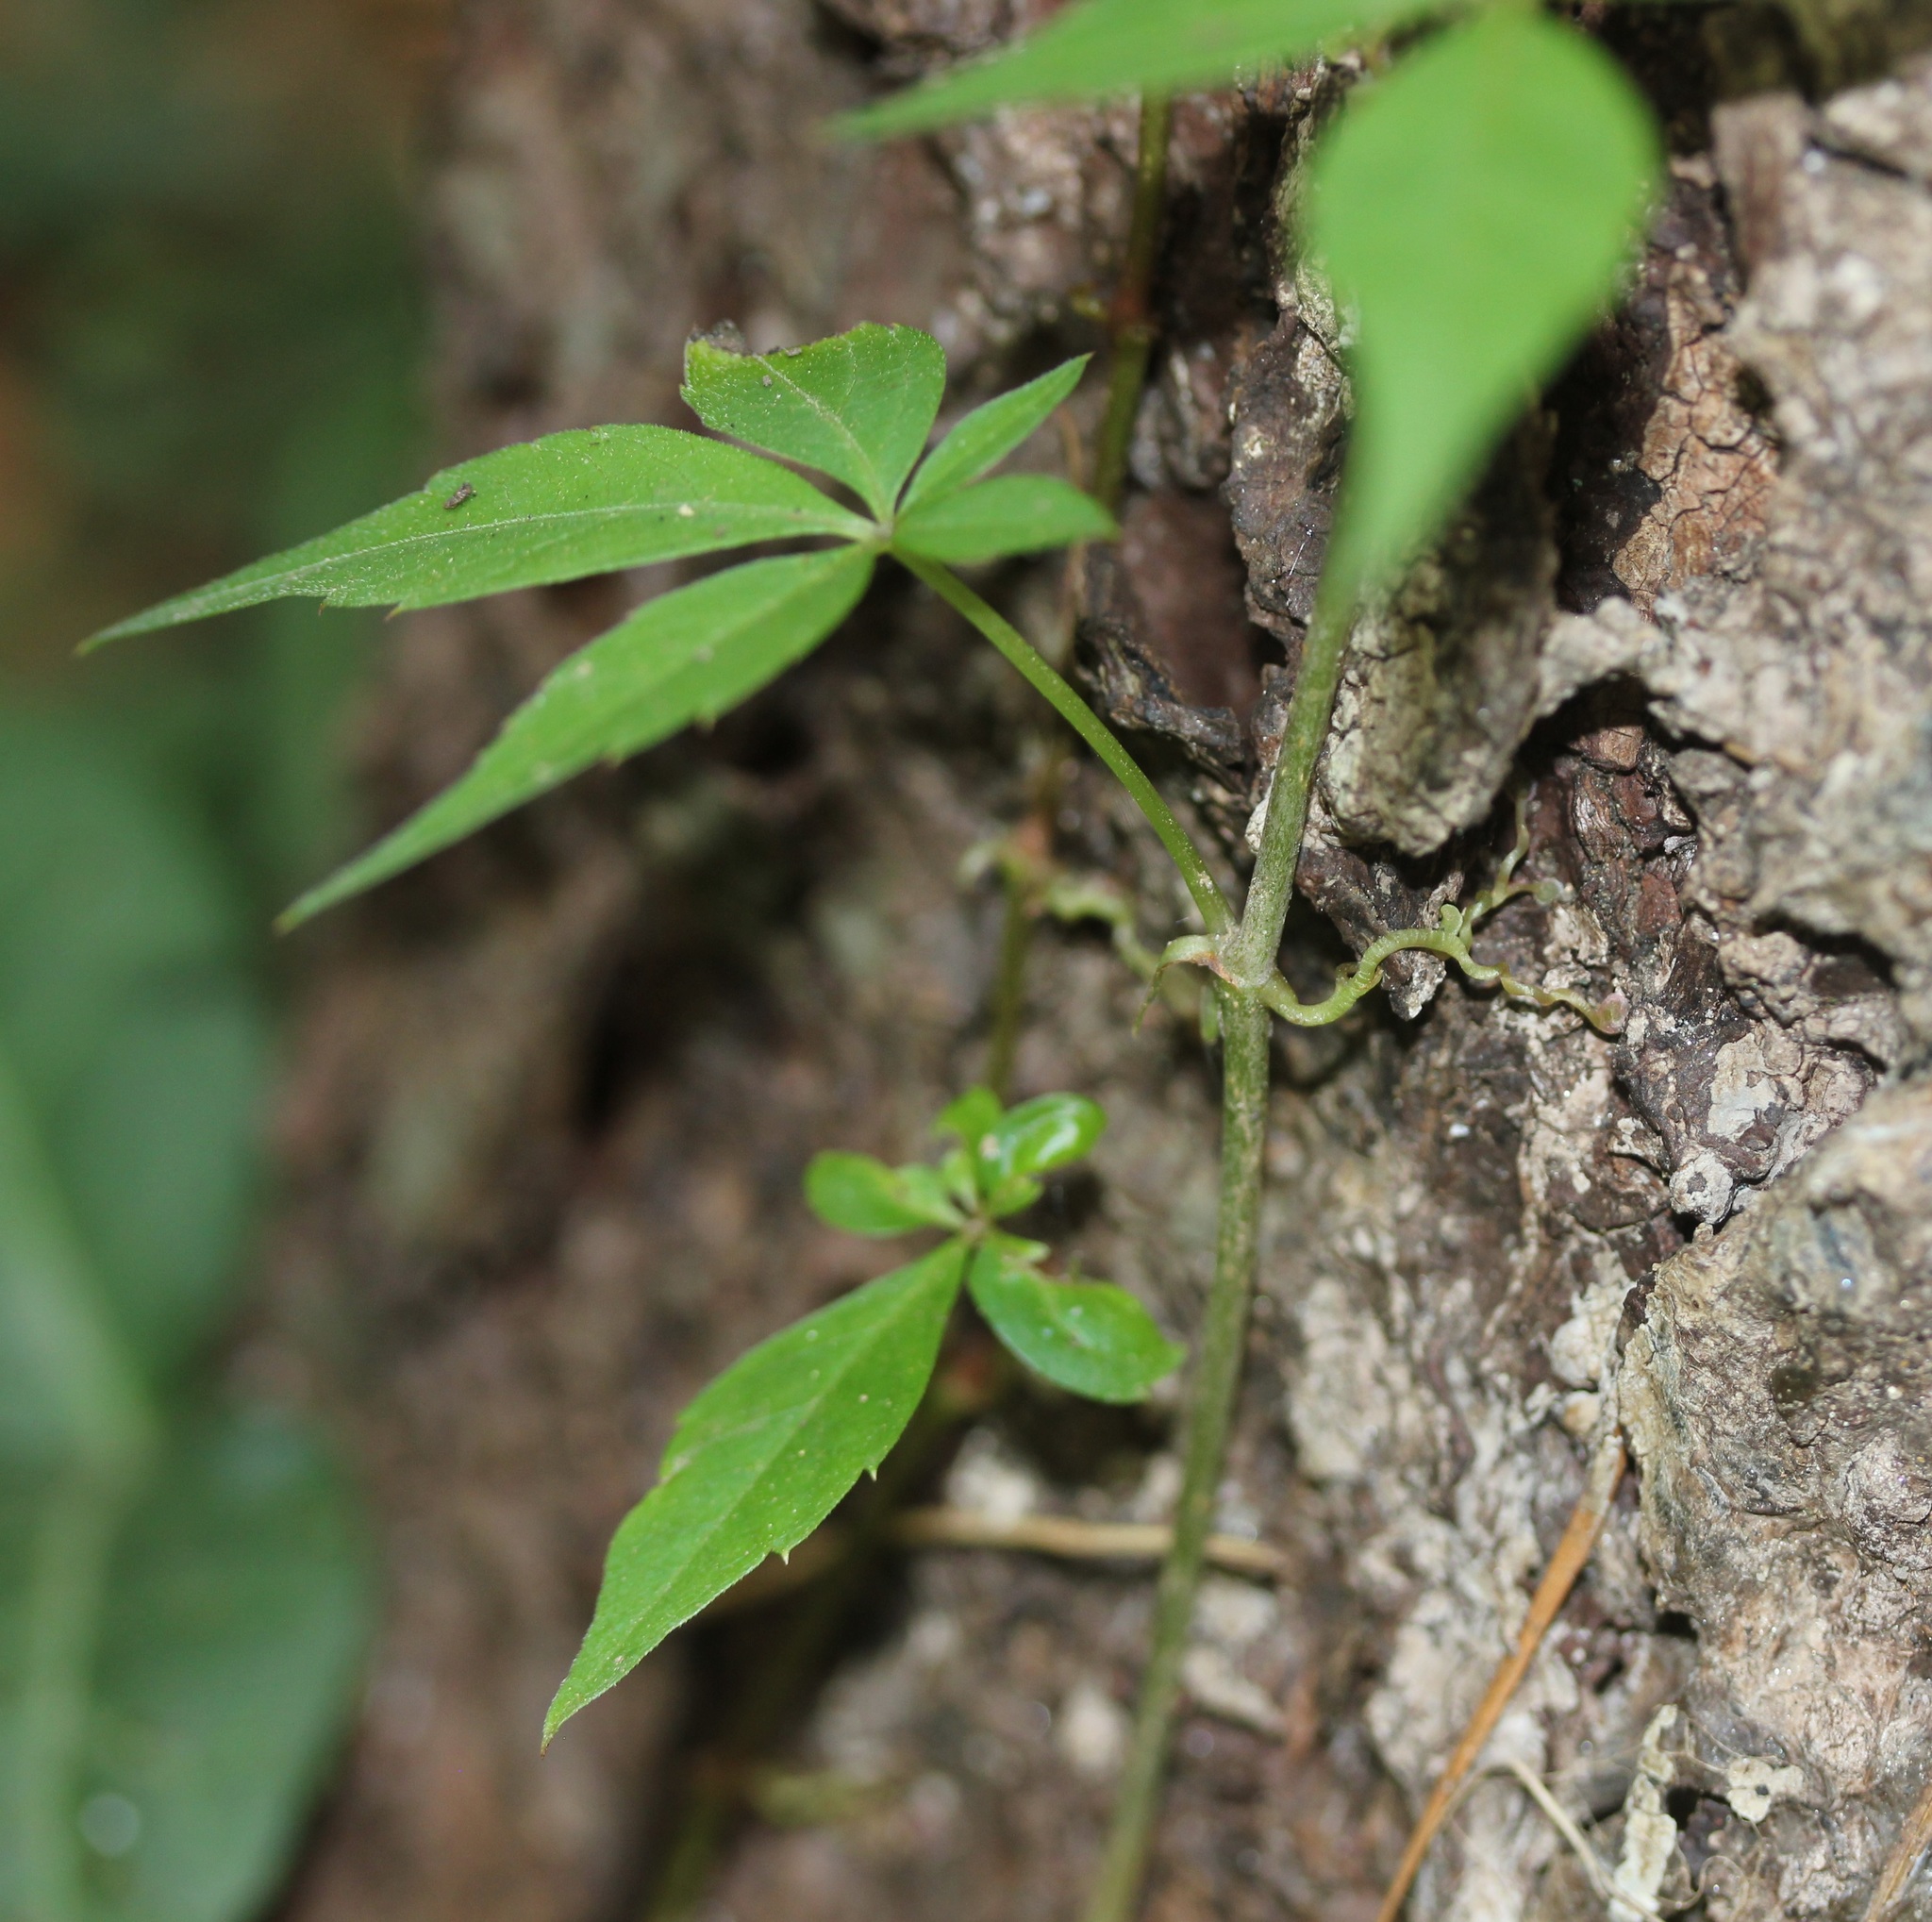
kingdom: Plantae
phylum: Tracheophyta
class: Magnoliopsida
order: Vitales
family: Vitaceae
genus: Parthenocissus
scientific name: Parthenocissus quinquefolia
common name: Virginia-creeper
